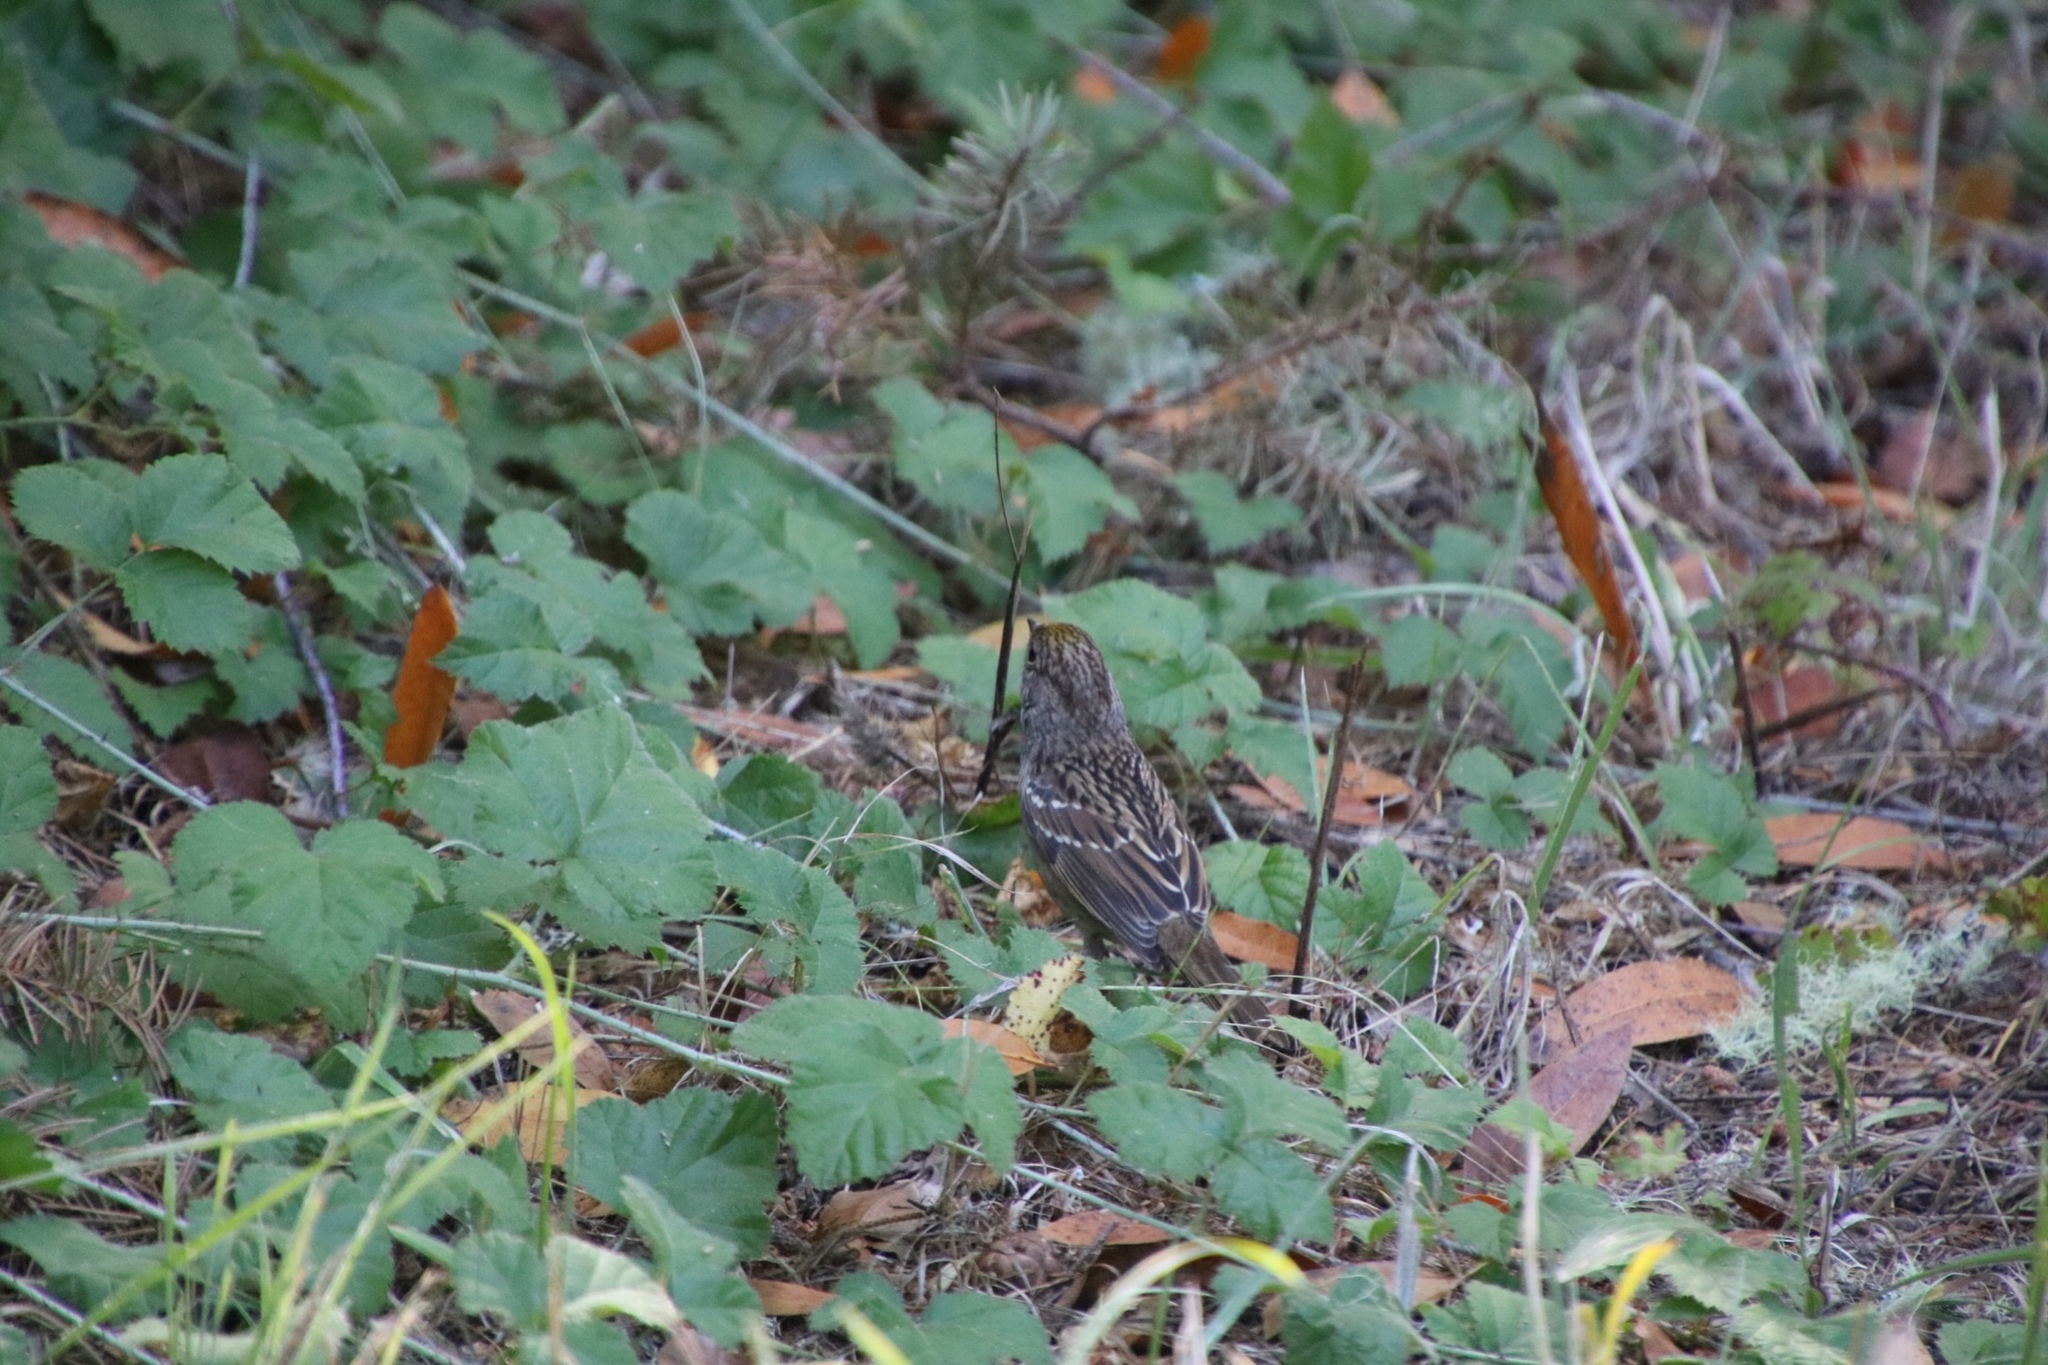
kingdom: Animalia
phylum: Chordata
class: Aves
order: Passeriformes
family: Passerellidae
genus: Zonotrichia
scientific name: Zonotrichia atricapilla
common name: Golden-crowned sparrow
